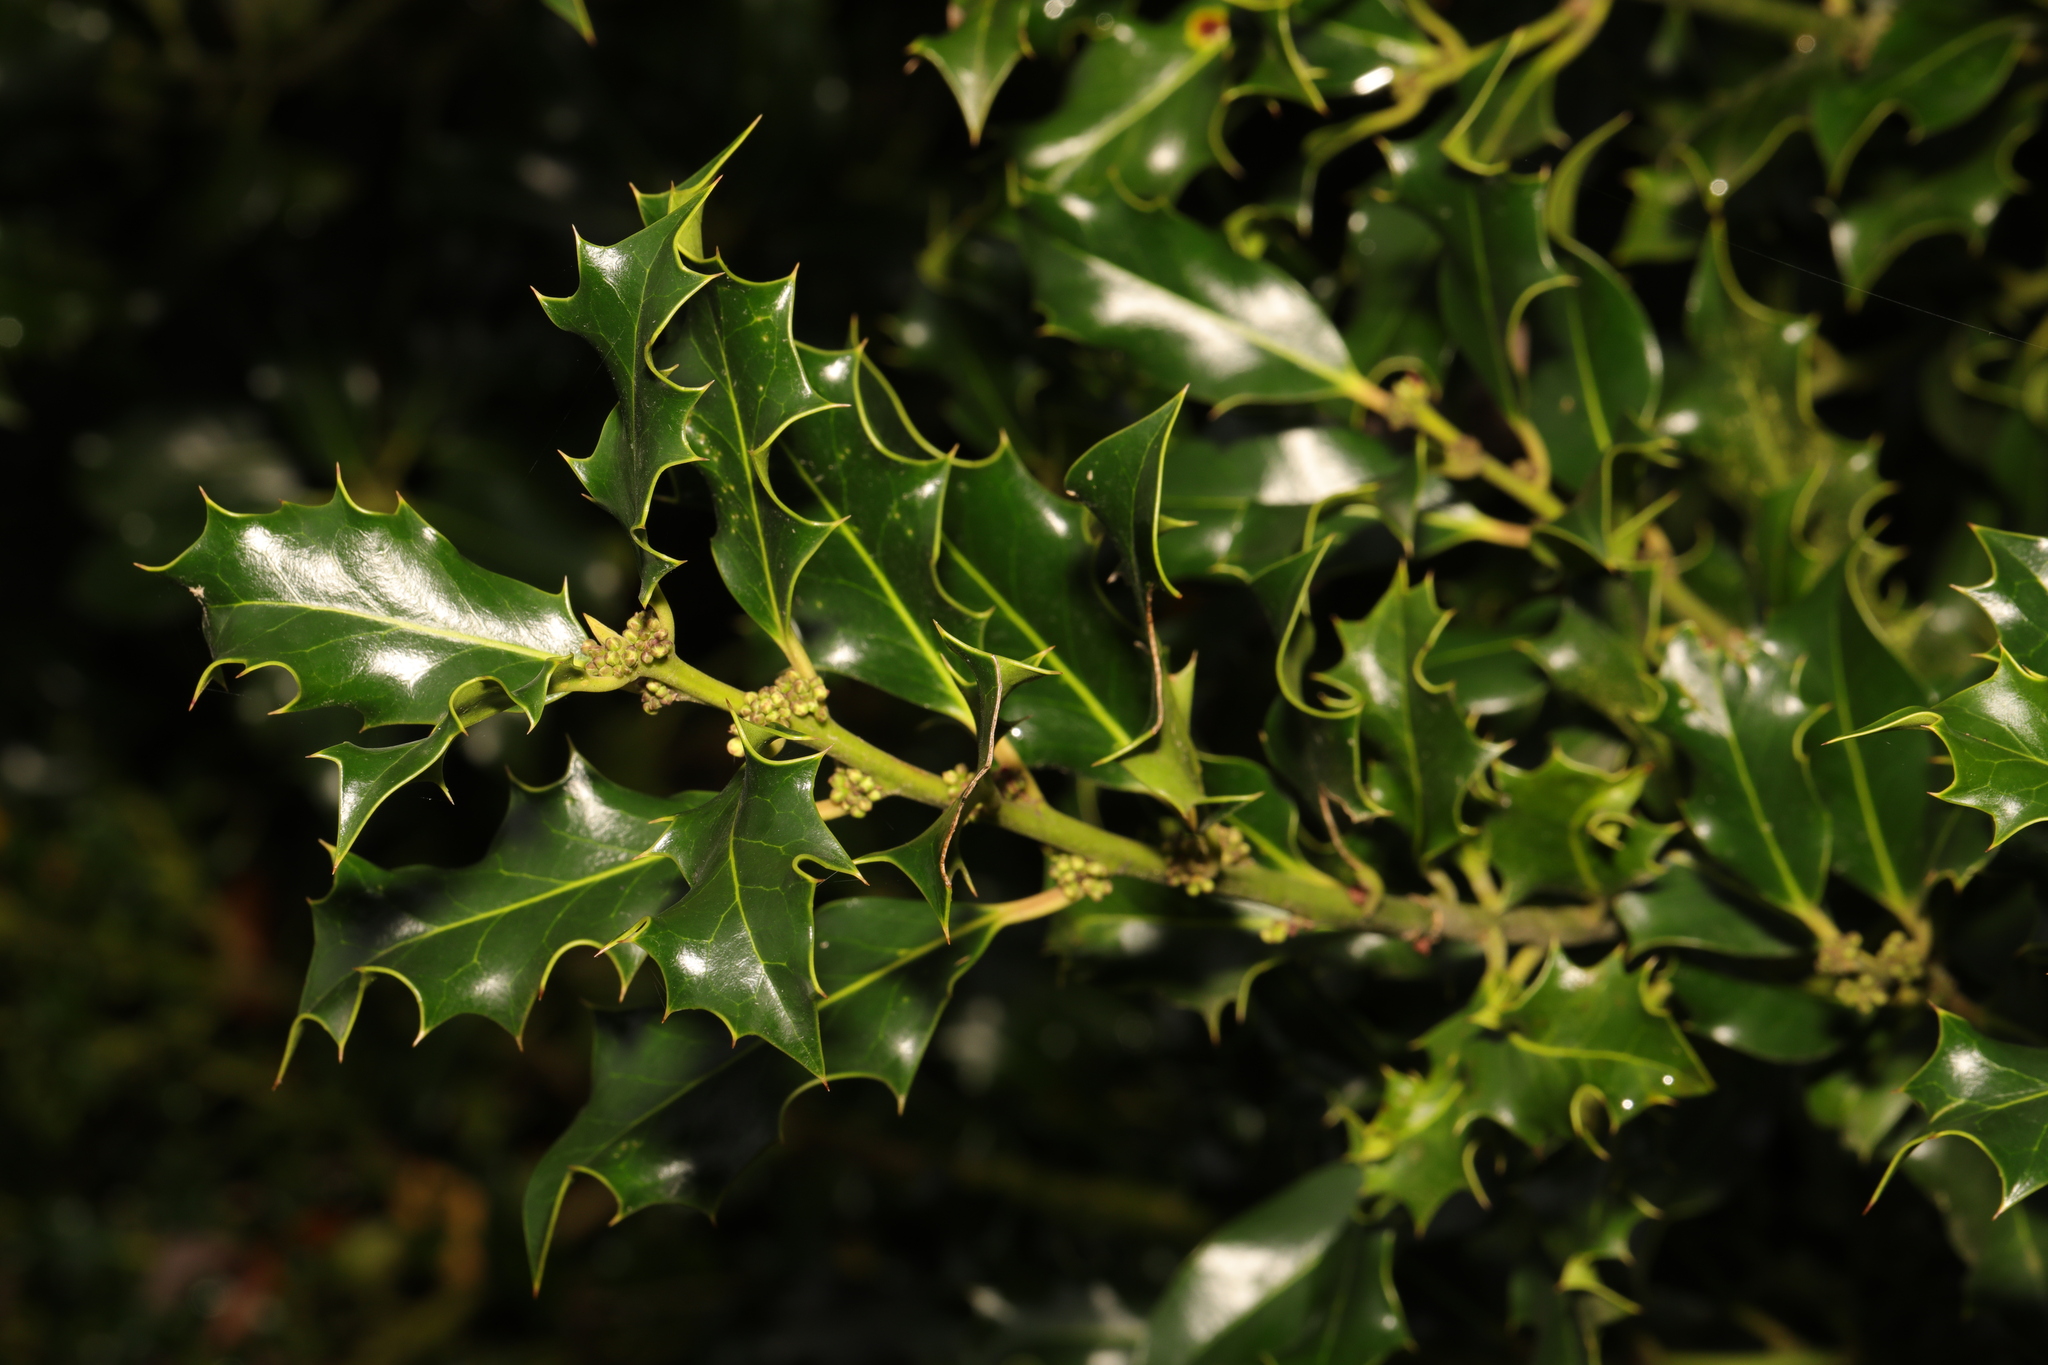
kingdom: Plantae
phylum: Tracheophyta
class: Magnoliopsida
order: Aquifoliales
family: Aquifoliaceae
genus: Ilex
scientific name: Ilex aquifolium
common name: English holly
